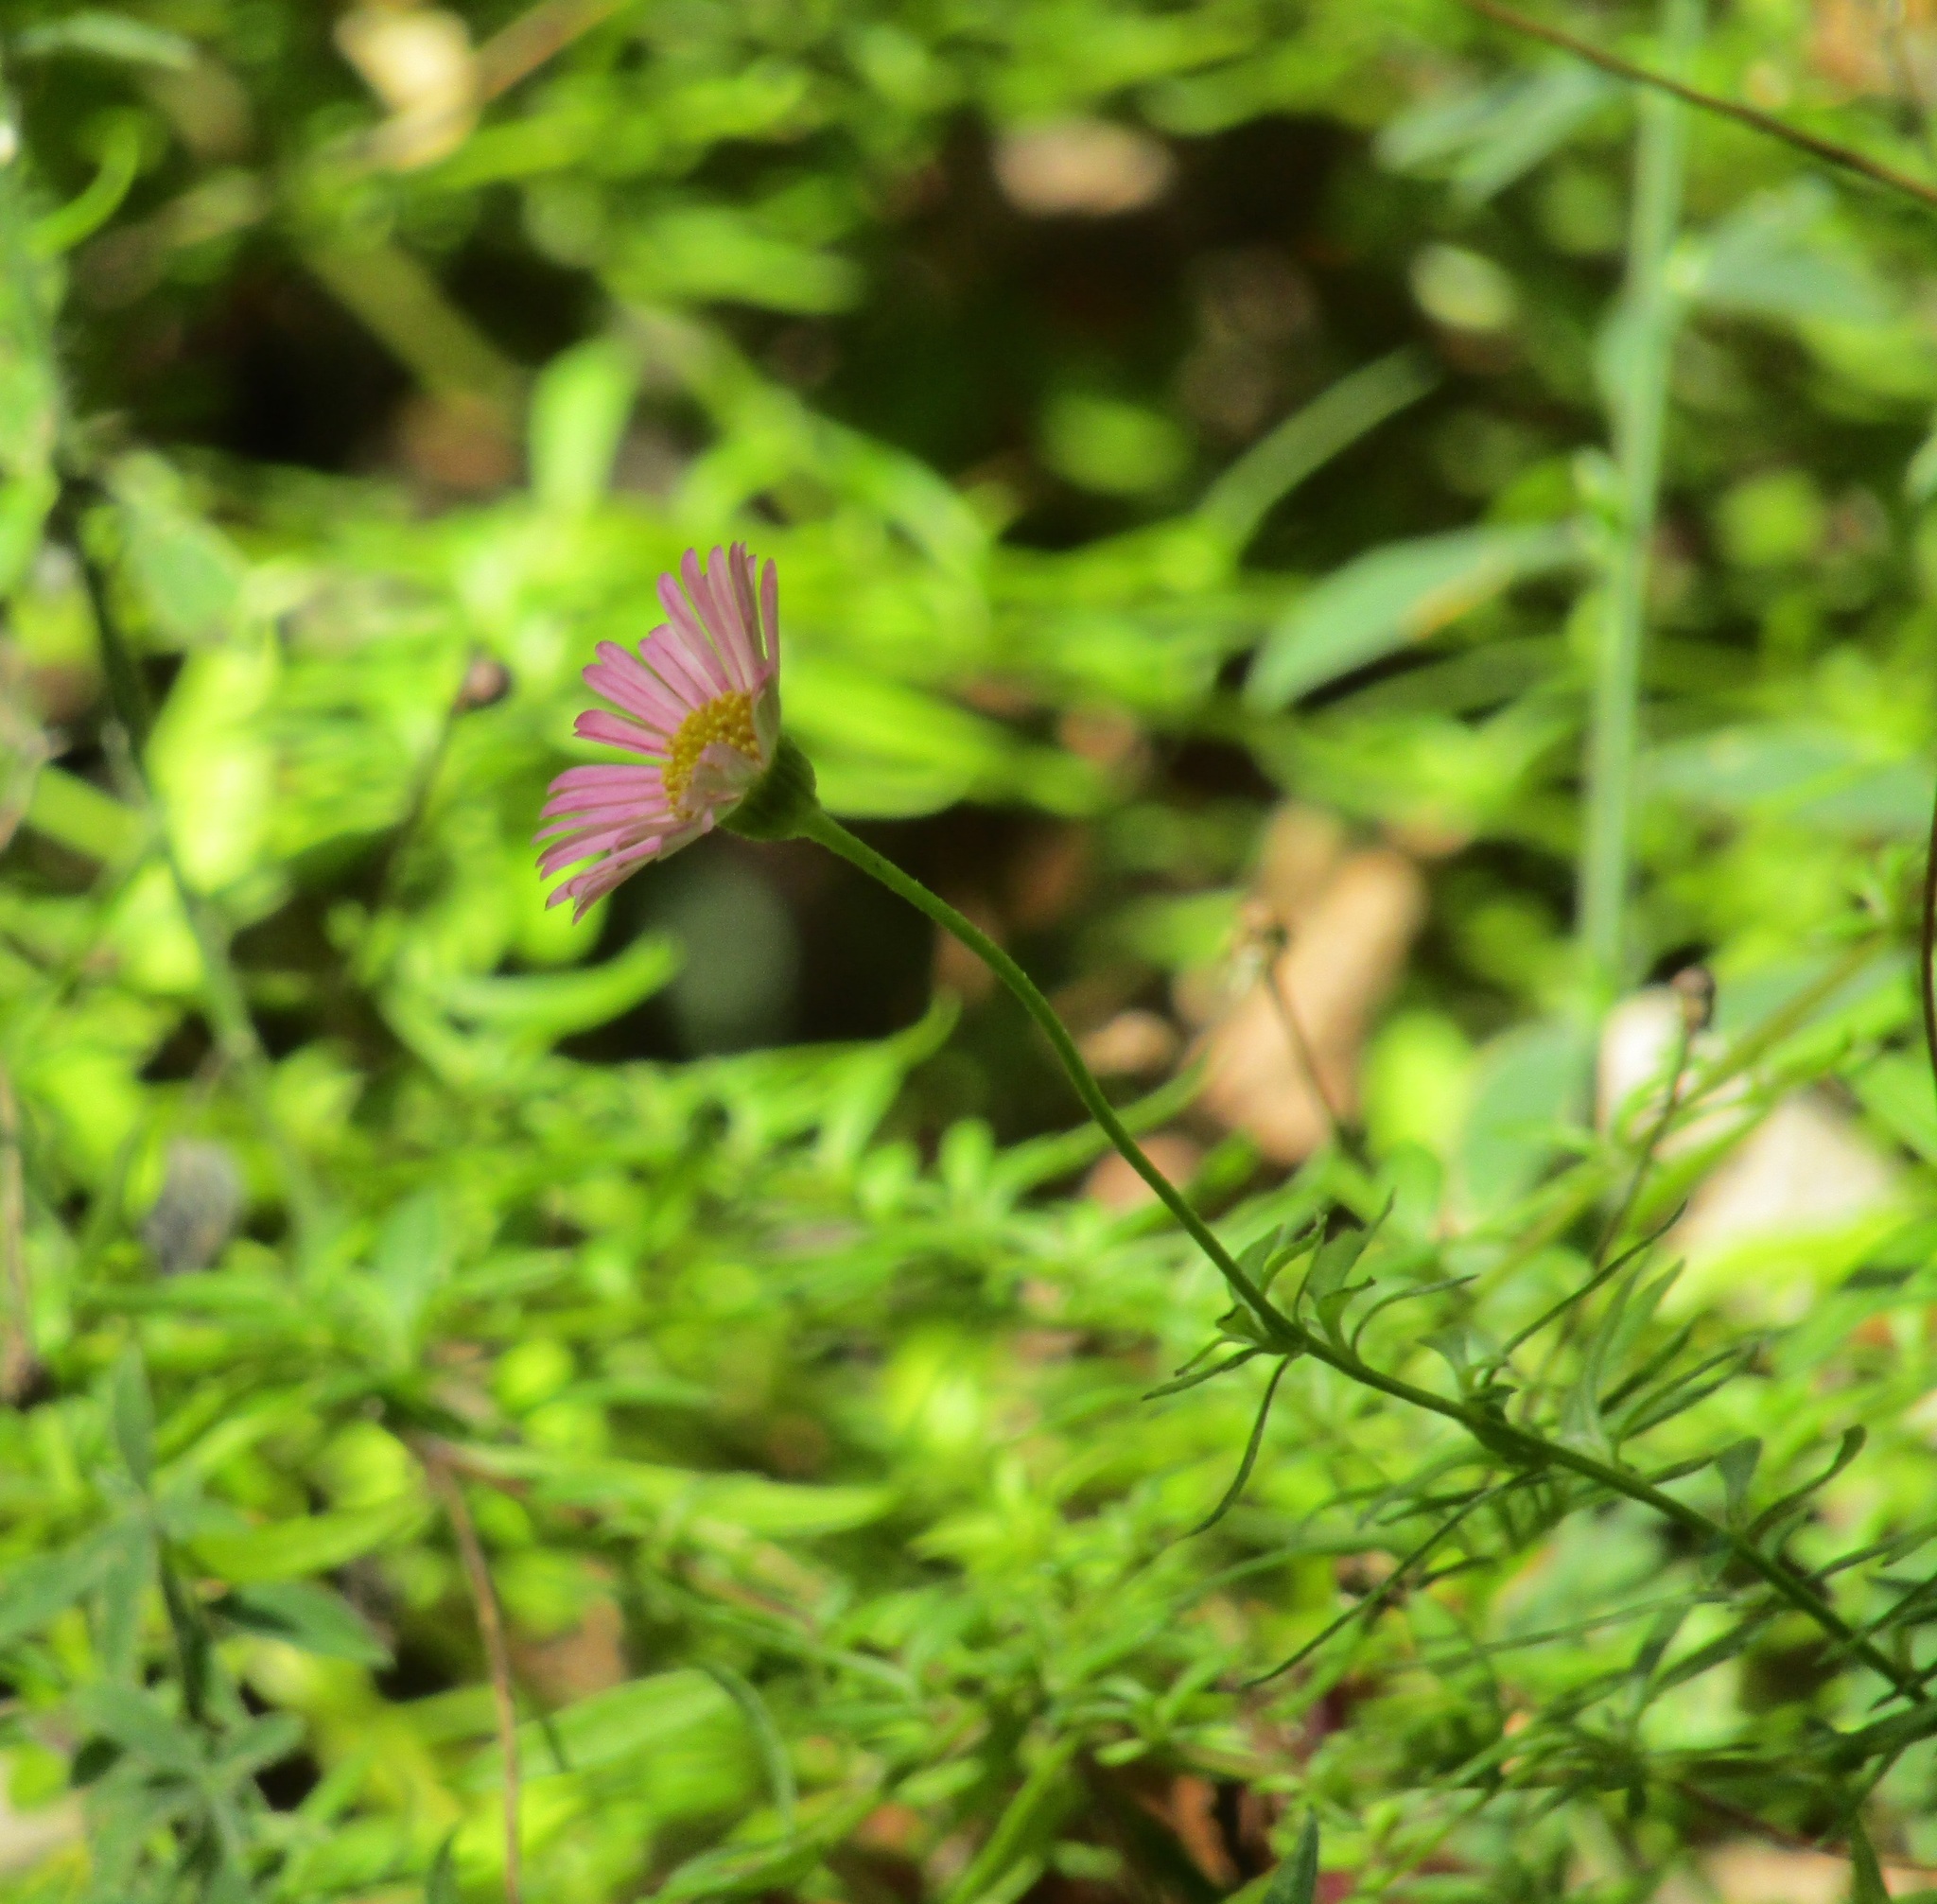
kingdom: Plantae
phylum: Tracheophyta
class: Magnoliopsida
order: Asterales
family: Asteraceae
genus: Erigeron
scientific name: Erigeron karvinskianus
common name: Mexican fleabane
